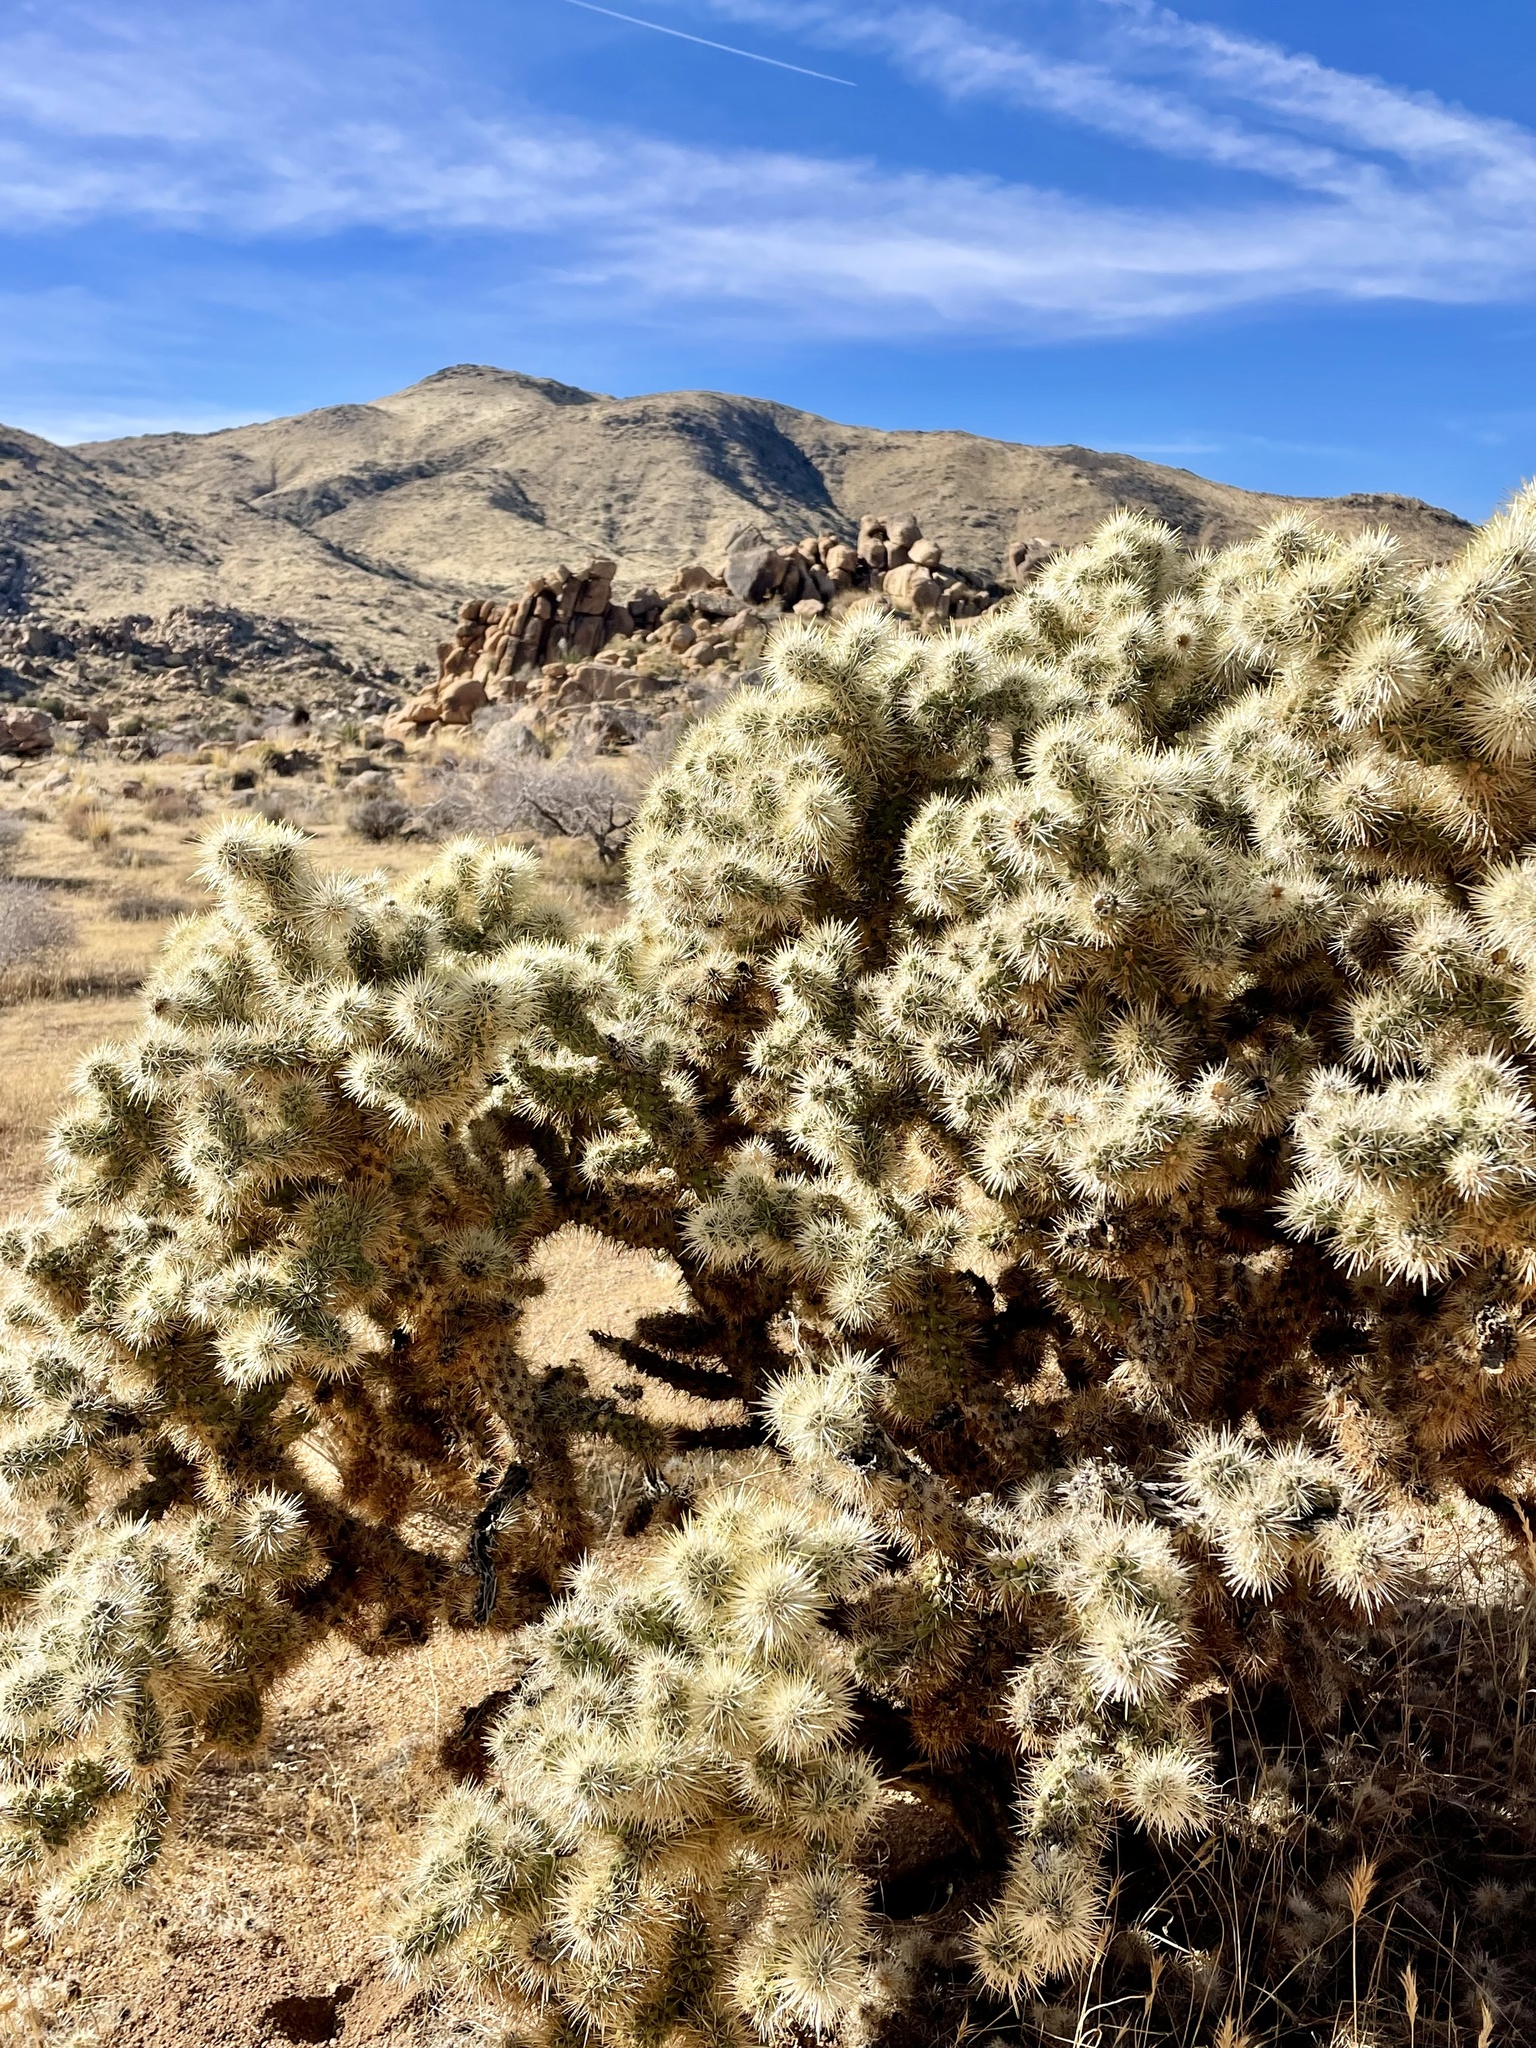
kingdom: Plantae
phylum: Tracheophyta
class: Magnoliopsida
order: Caryophyllales
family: Cactaceae
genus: Cylindropuntia
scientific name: Cylindropuntia echinocarpa
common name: Ground cholla
